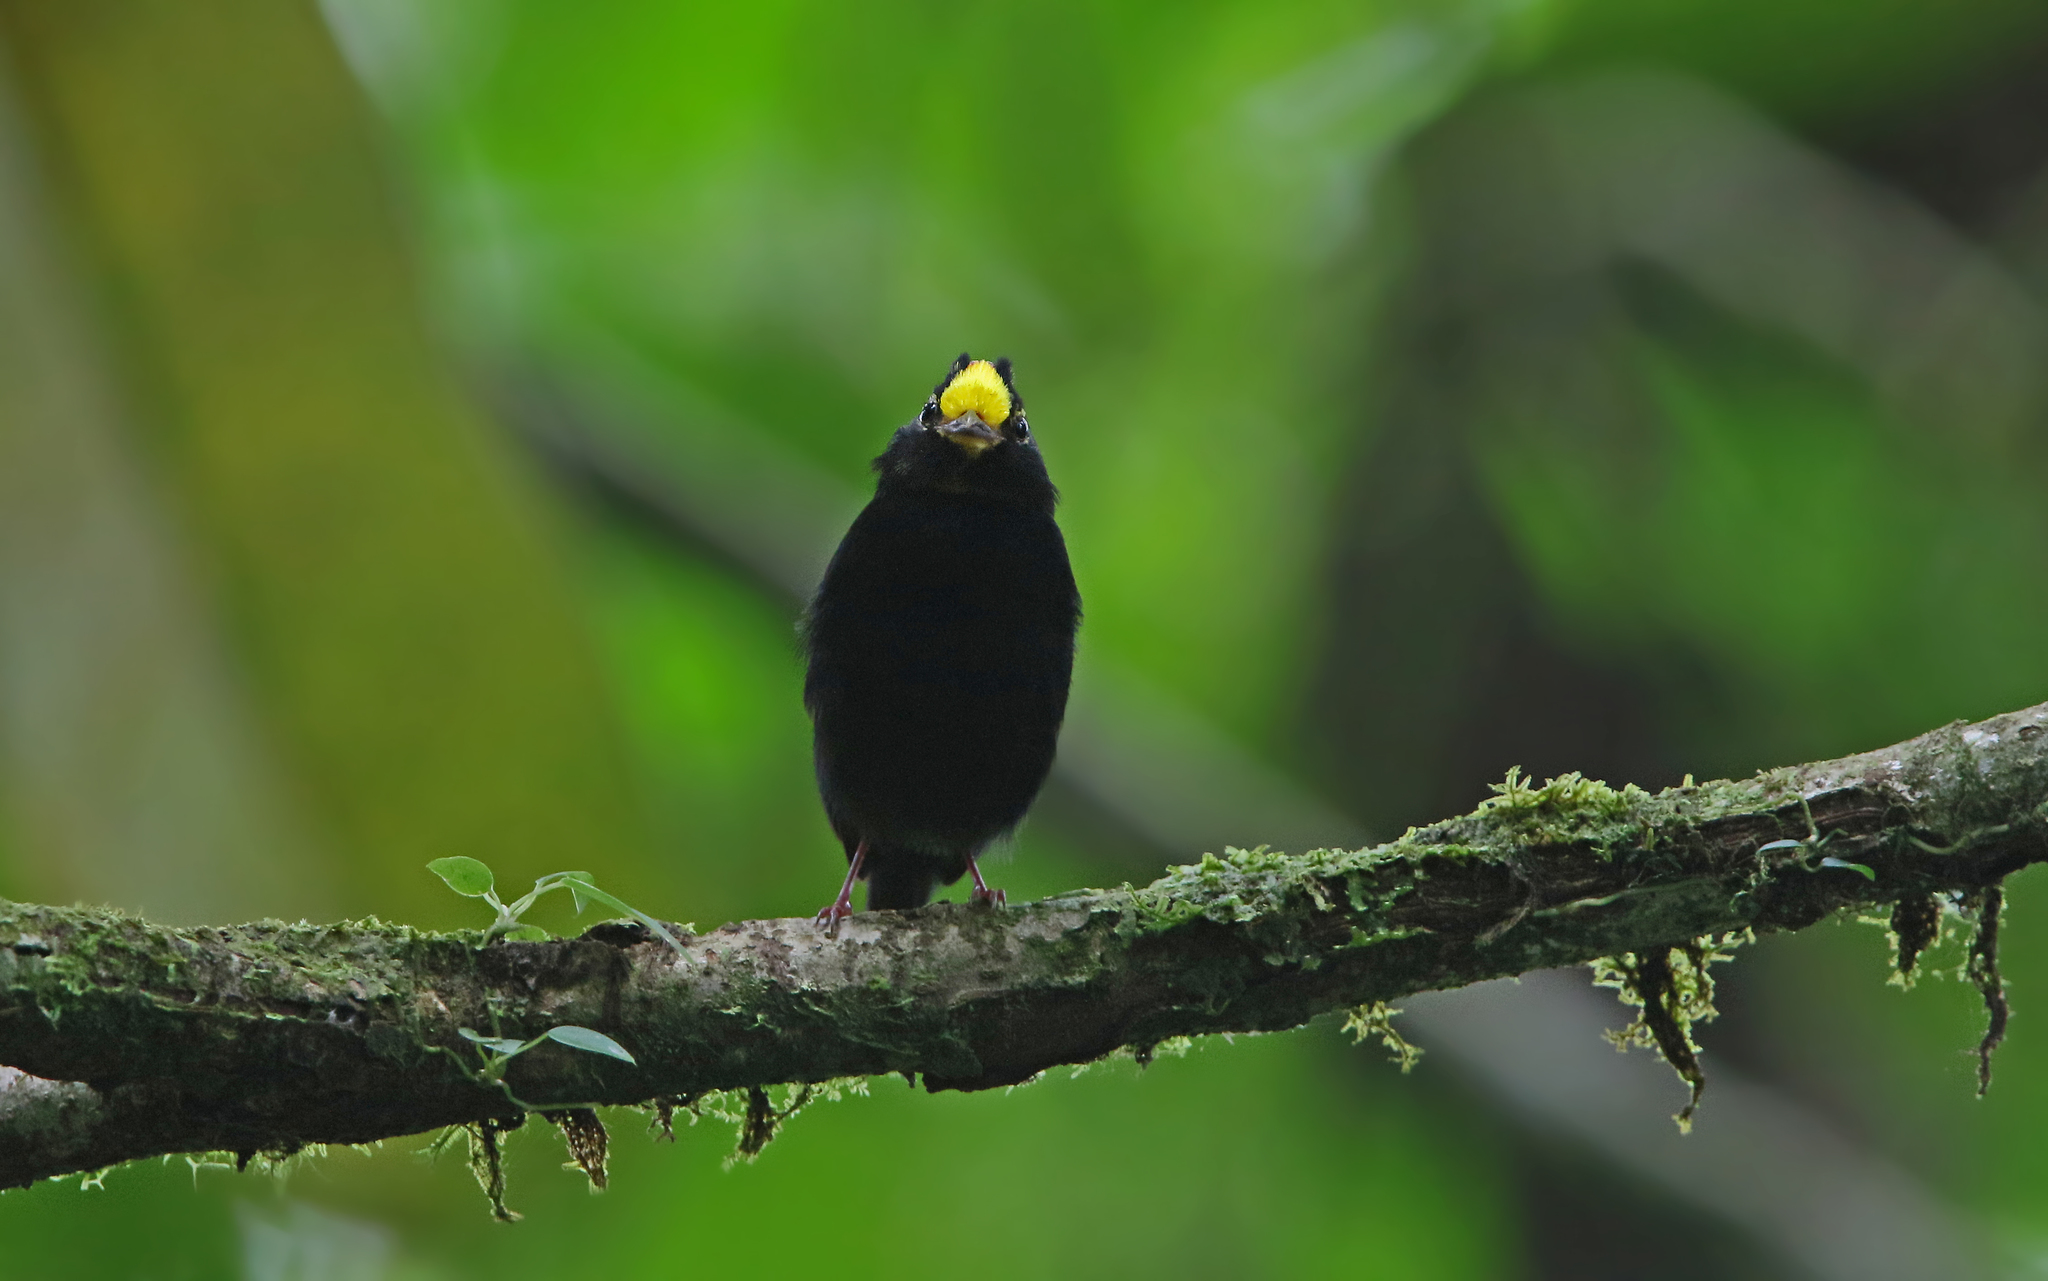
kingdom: Animalia
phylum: Chordata
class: Aves
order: Passeriformes
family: Pipridae
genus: Masius
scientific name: Masius chrysopterus
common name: Golden-winged manakin
